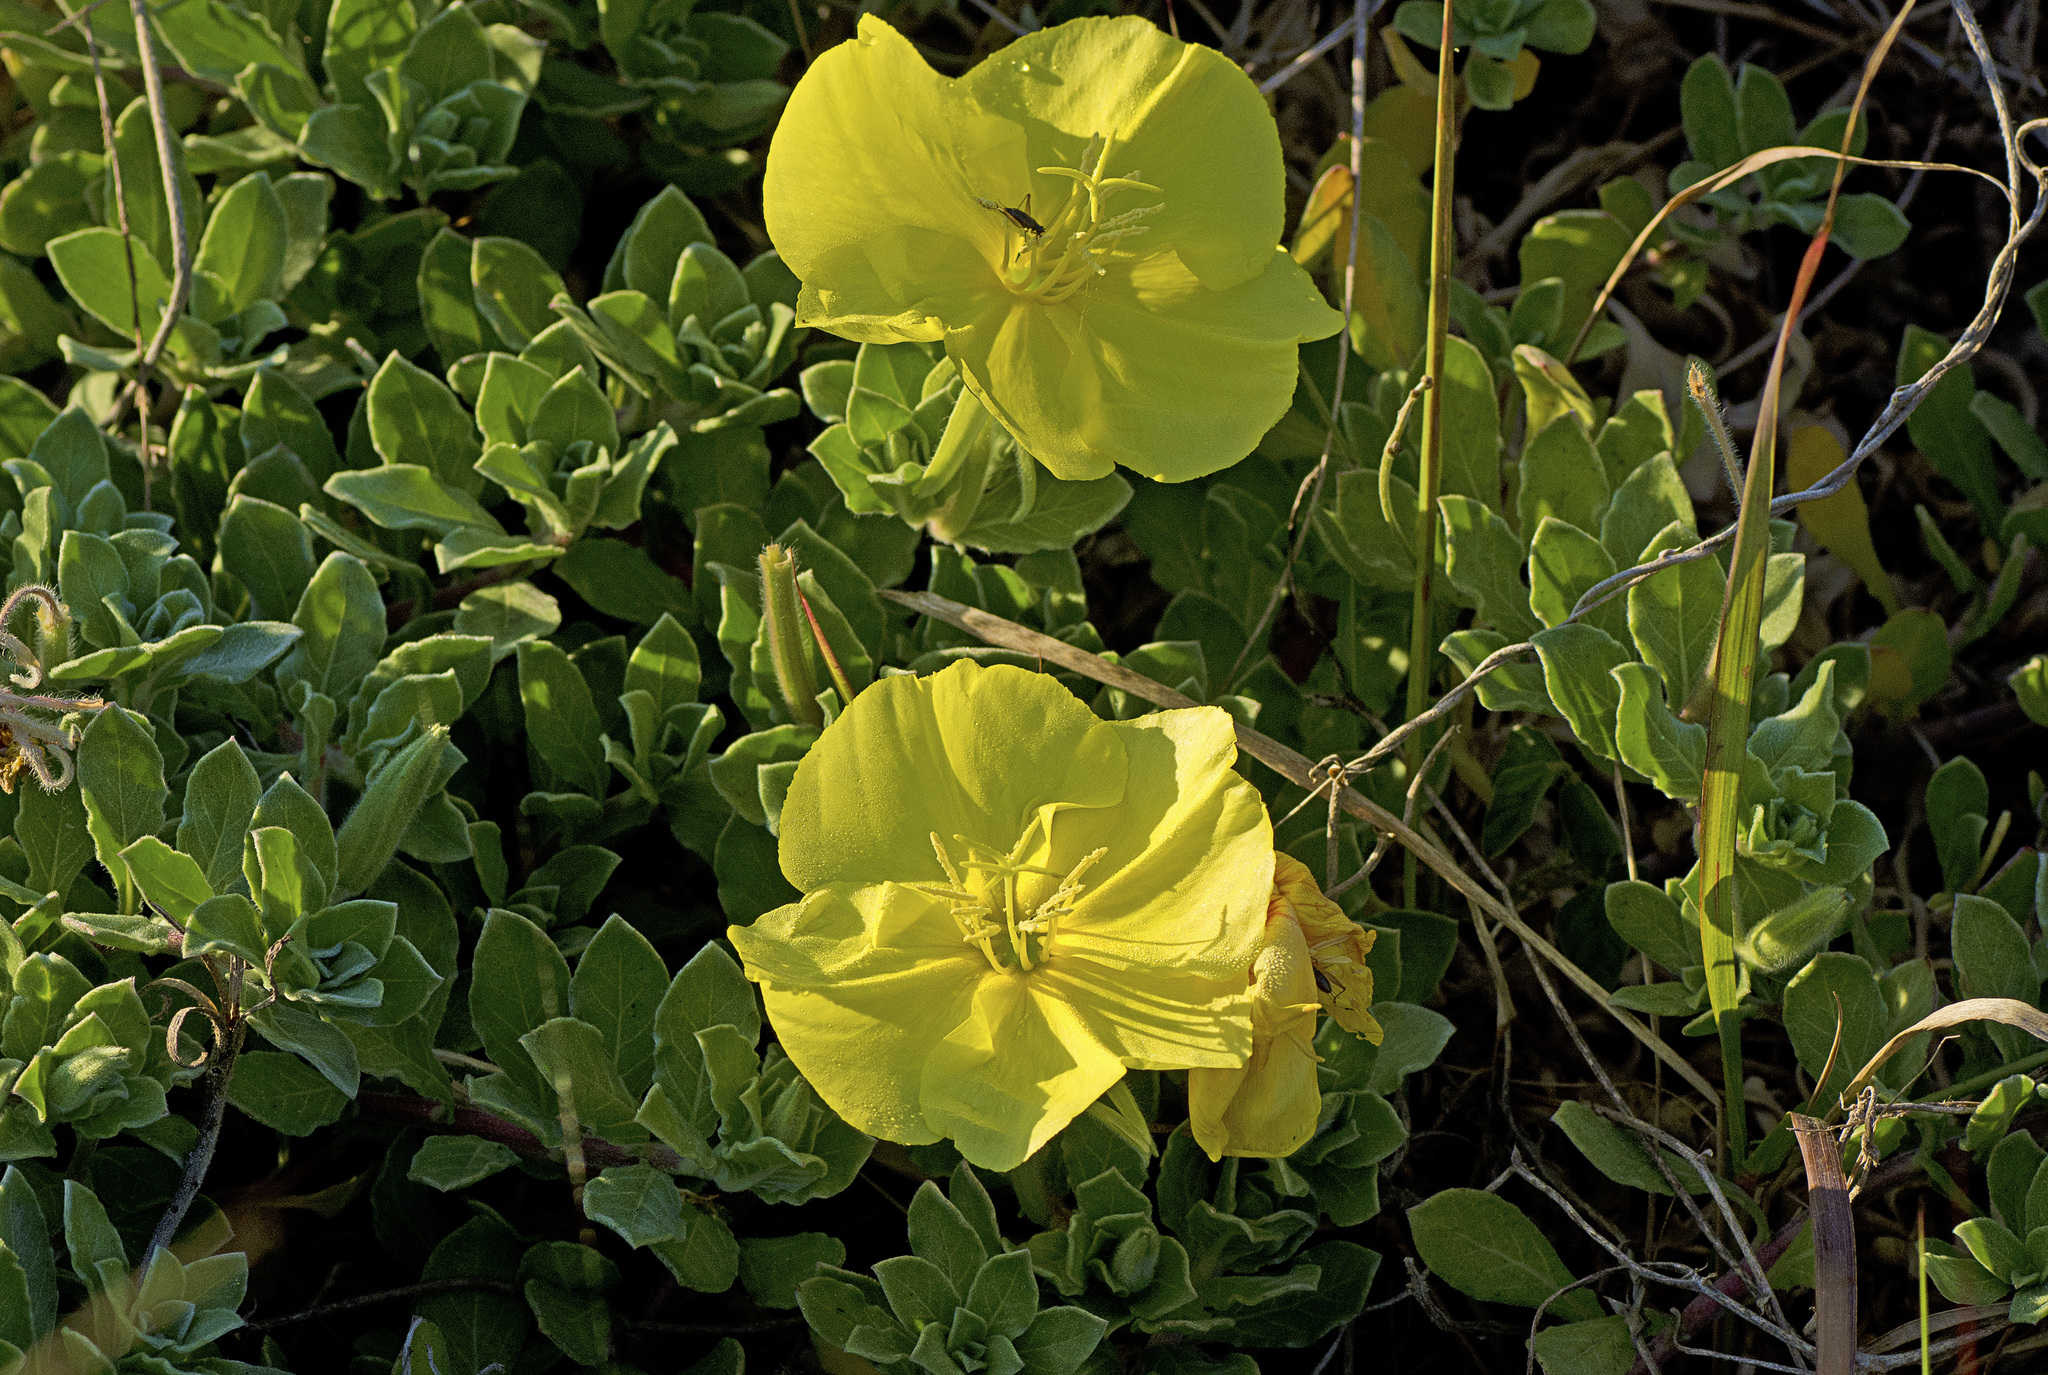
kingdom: Plantae
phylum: Tracheophyta
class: Magnoliopsida
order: Myrtales
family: Onagraceae
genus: Oenothera
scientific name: Oenothera drummondii
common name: Beach evening-primrose
